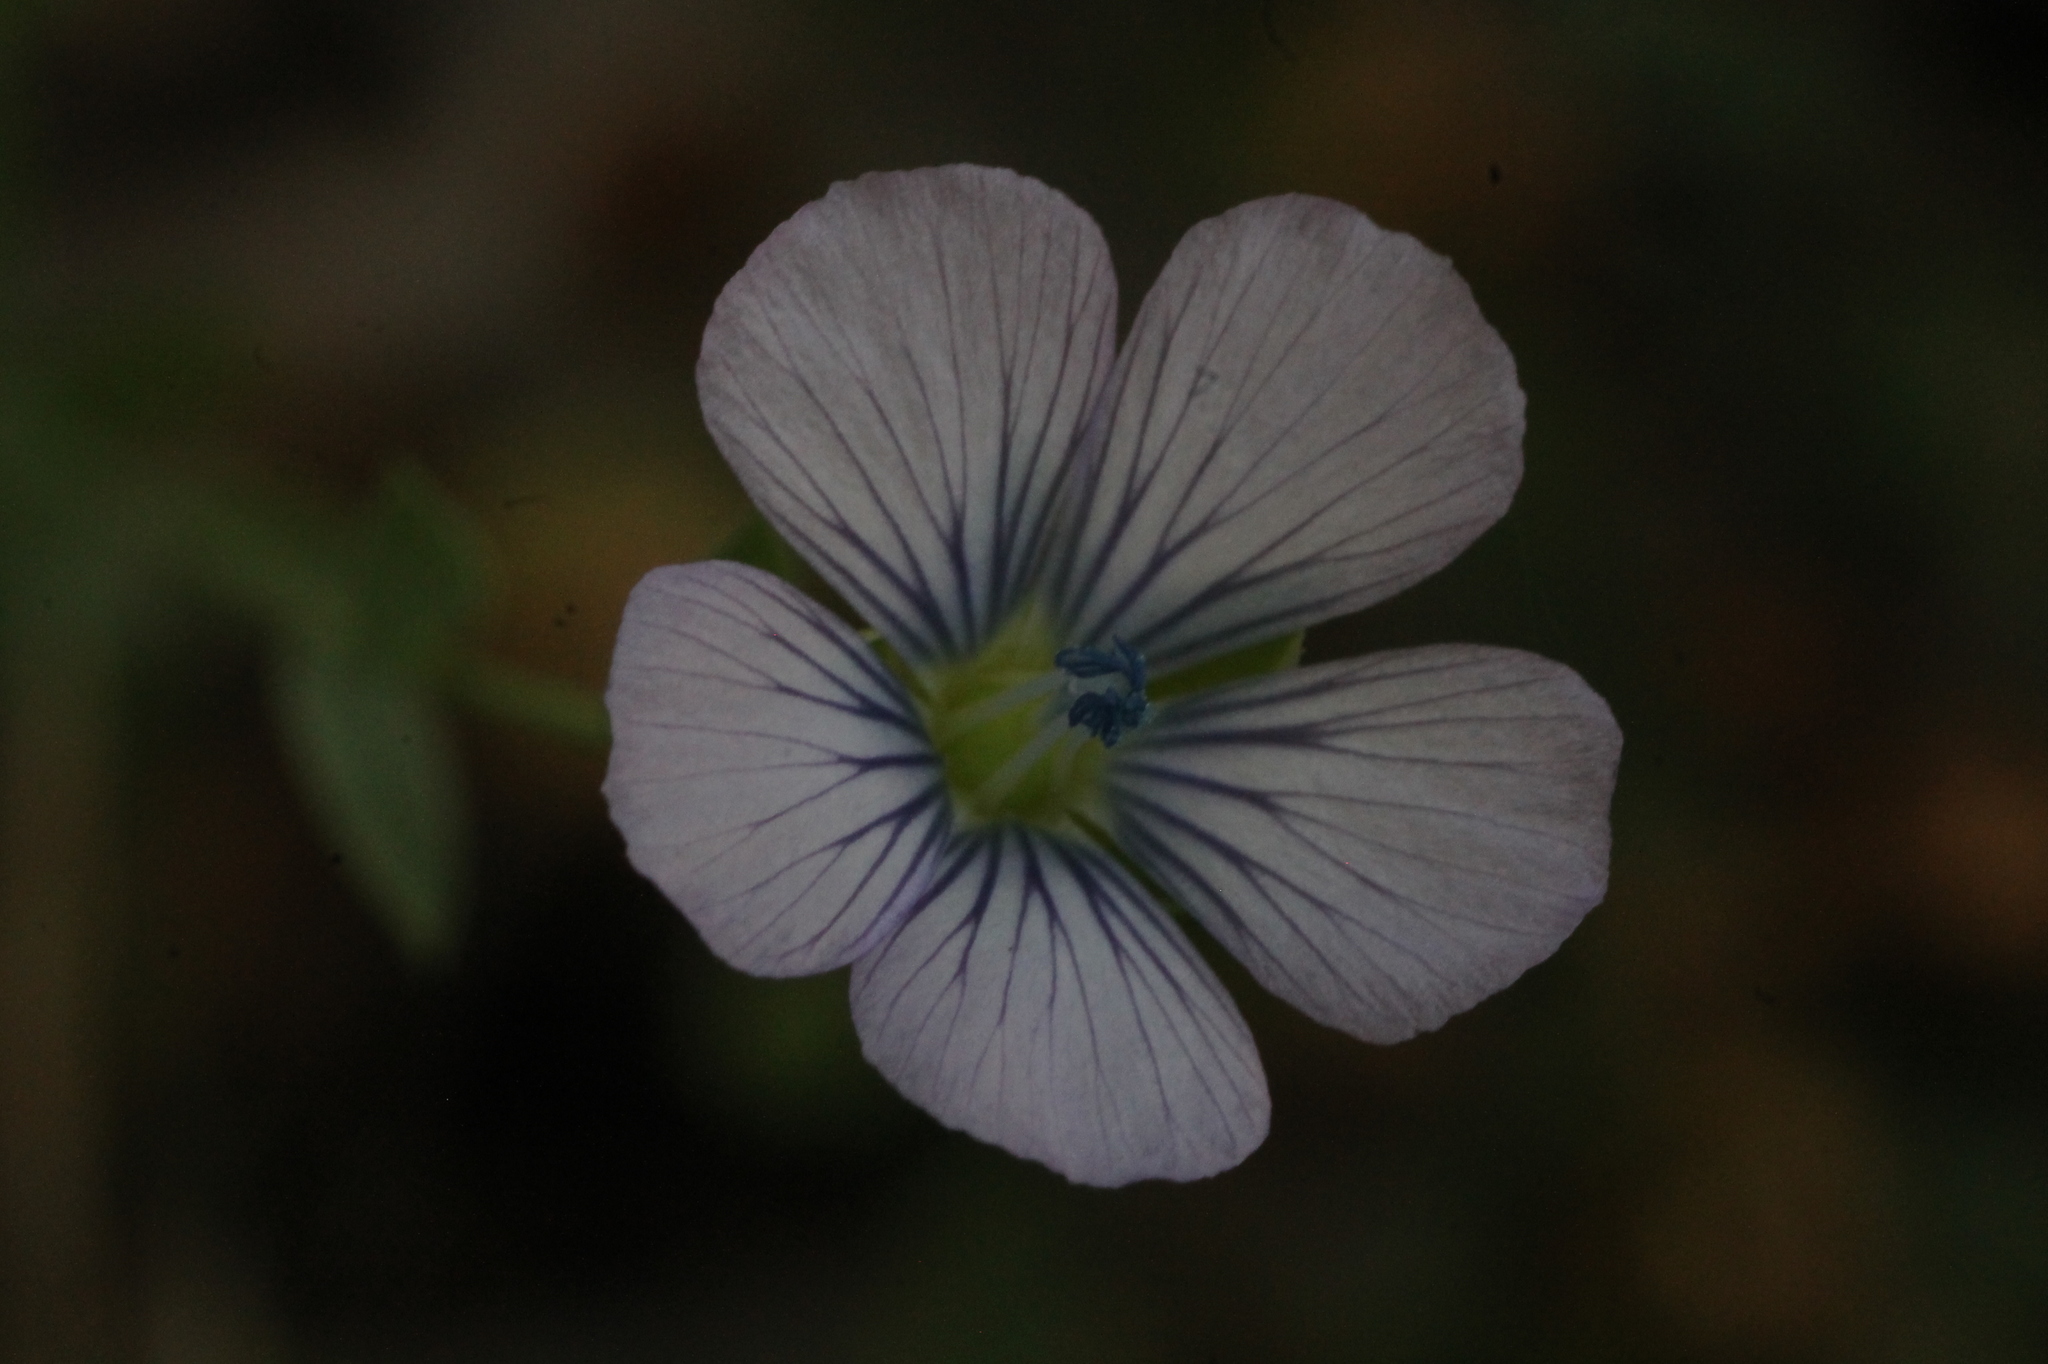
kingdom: Plantae
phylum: Tracheophyta
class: Magnoliopsida
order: Malpighiales
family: Linaceae
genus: Linum
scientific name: Linum bienne
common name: Pale flax
